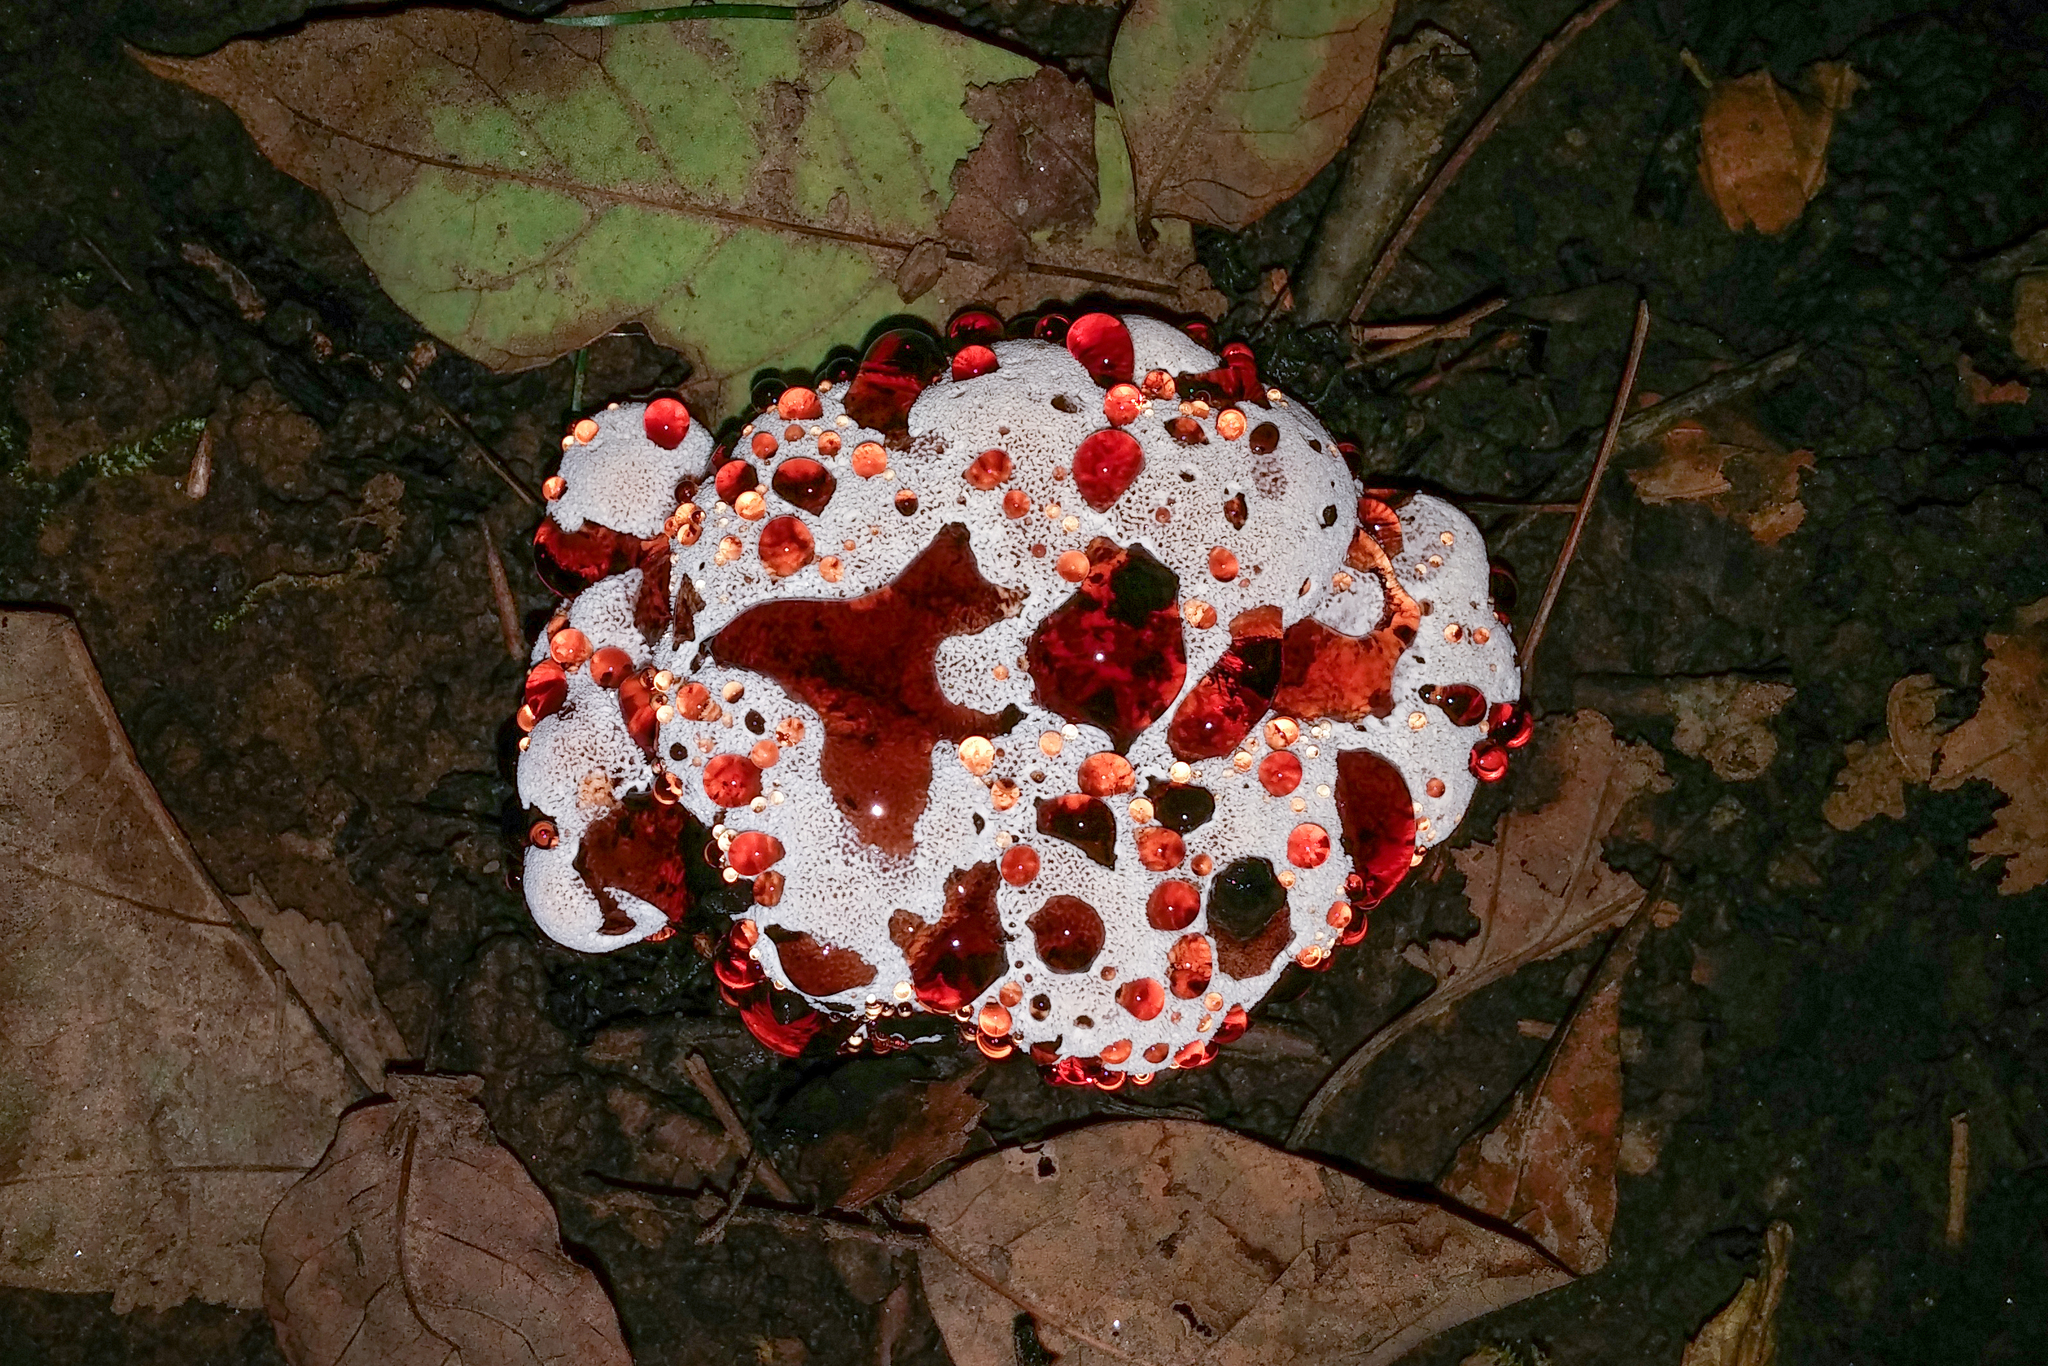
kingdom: Fungi
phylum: Basidiomycota
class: Agaricomycetes
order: Polyporales
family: Podoscyphaceae
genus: Abortiporus
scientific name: Abortiporus biennis
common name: Blushing rosette
